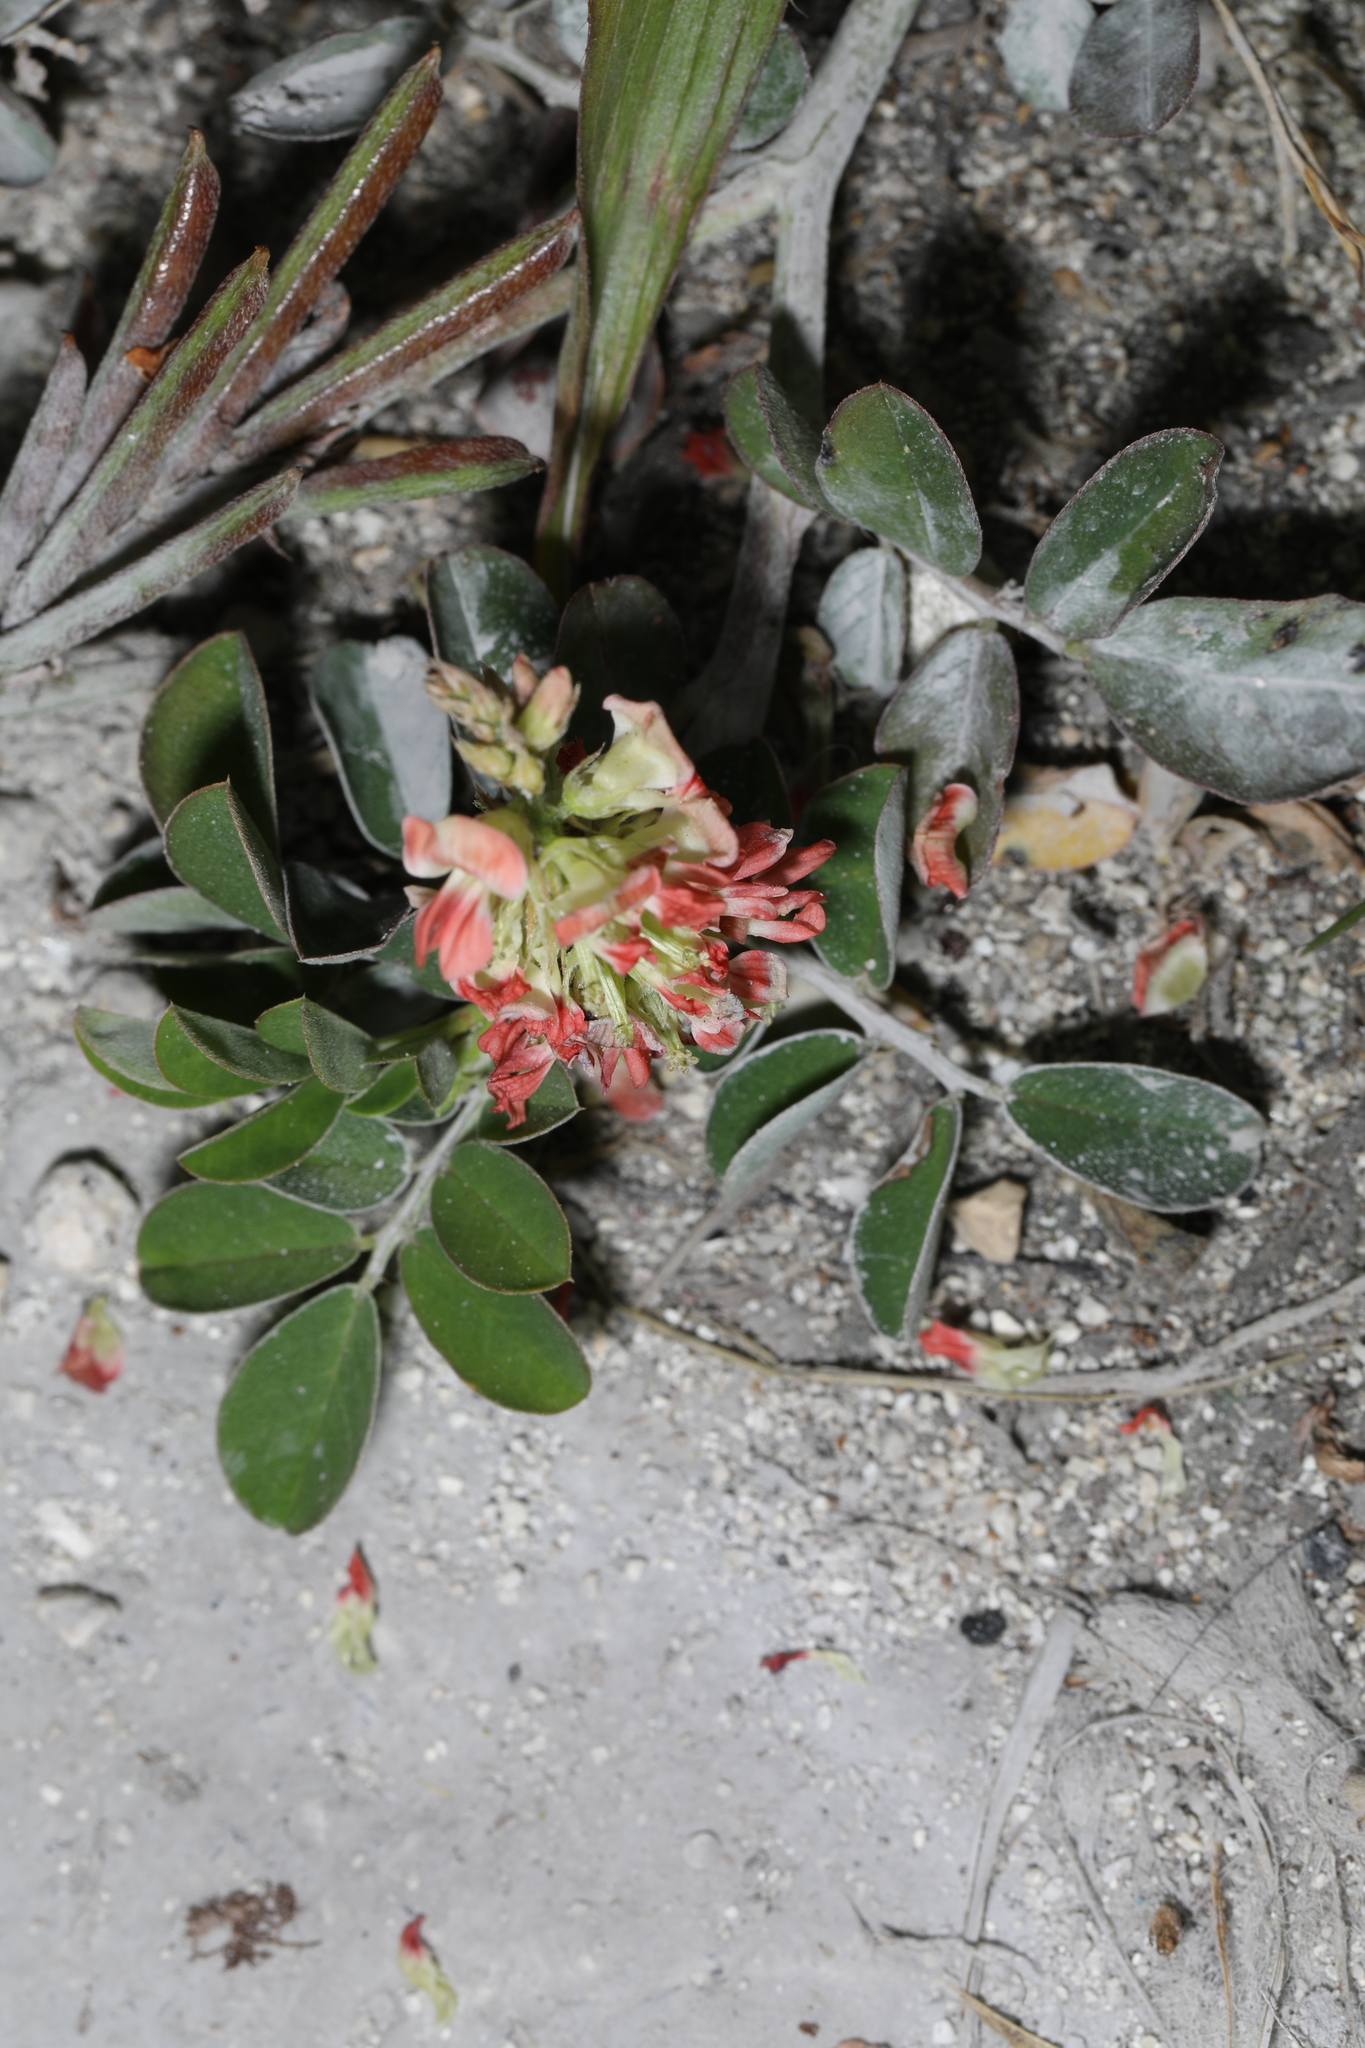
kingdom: Plantae
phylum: Tracheophyta
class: Magnoliopsida
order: Fabales
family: Fabaceae
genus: Indigofera
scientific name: Indigofera spicata
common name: Creeping indigo
